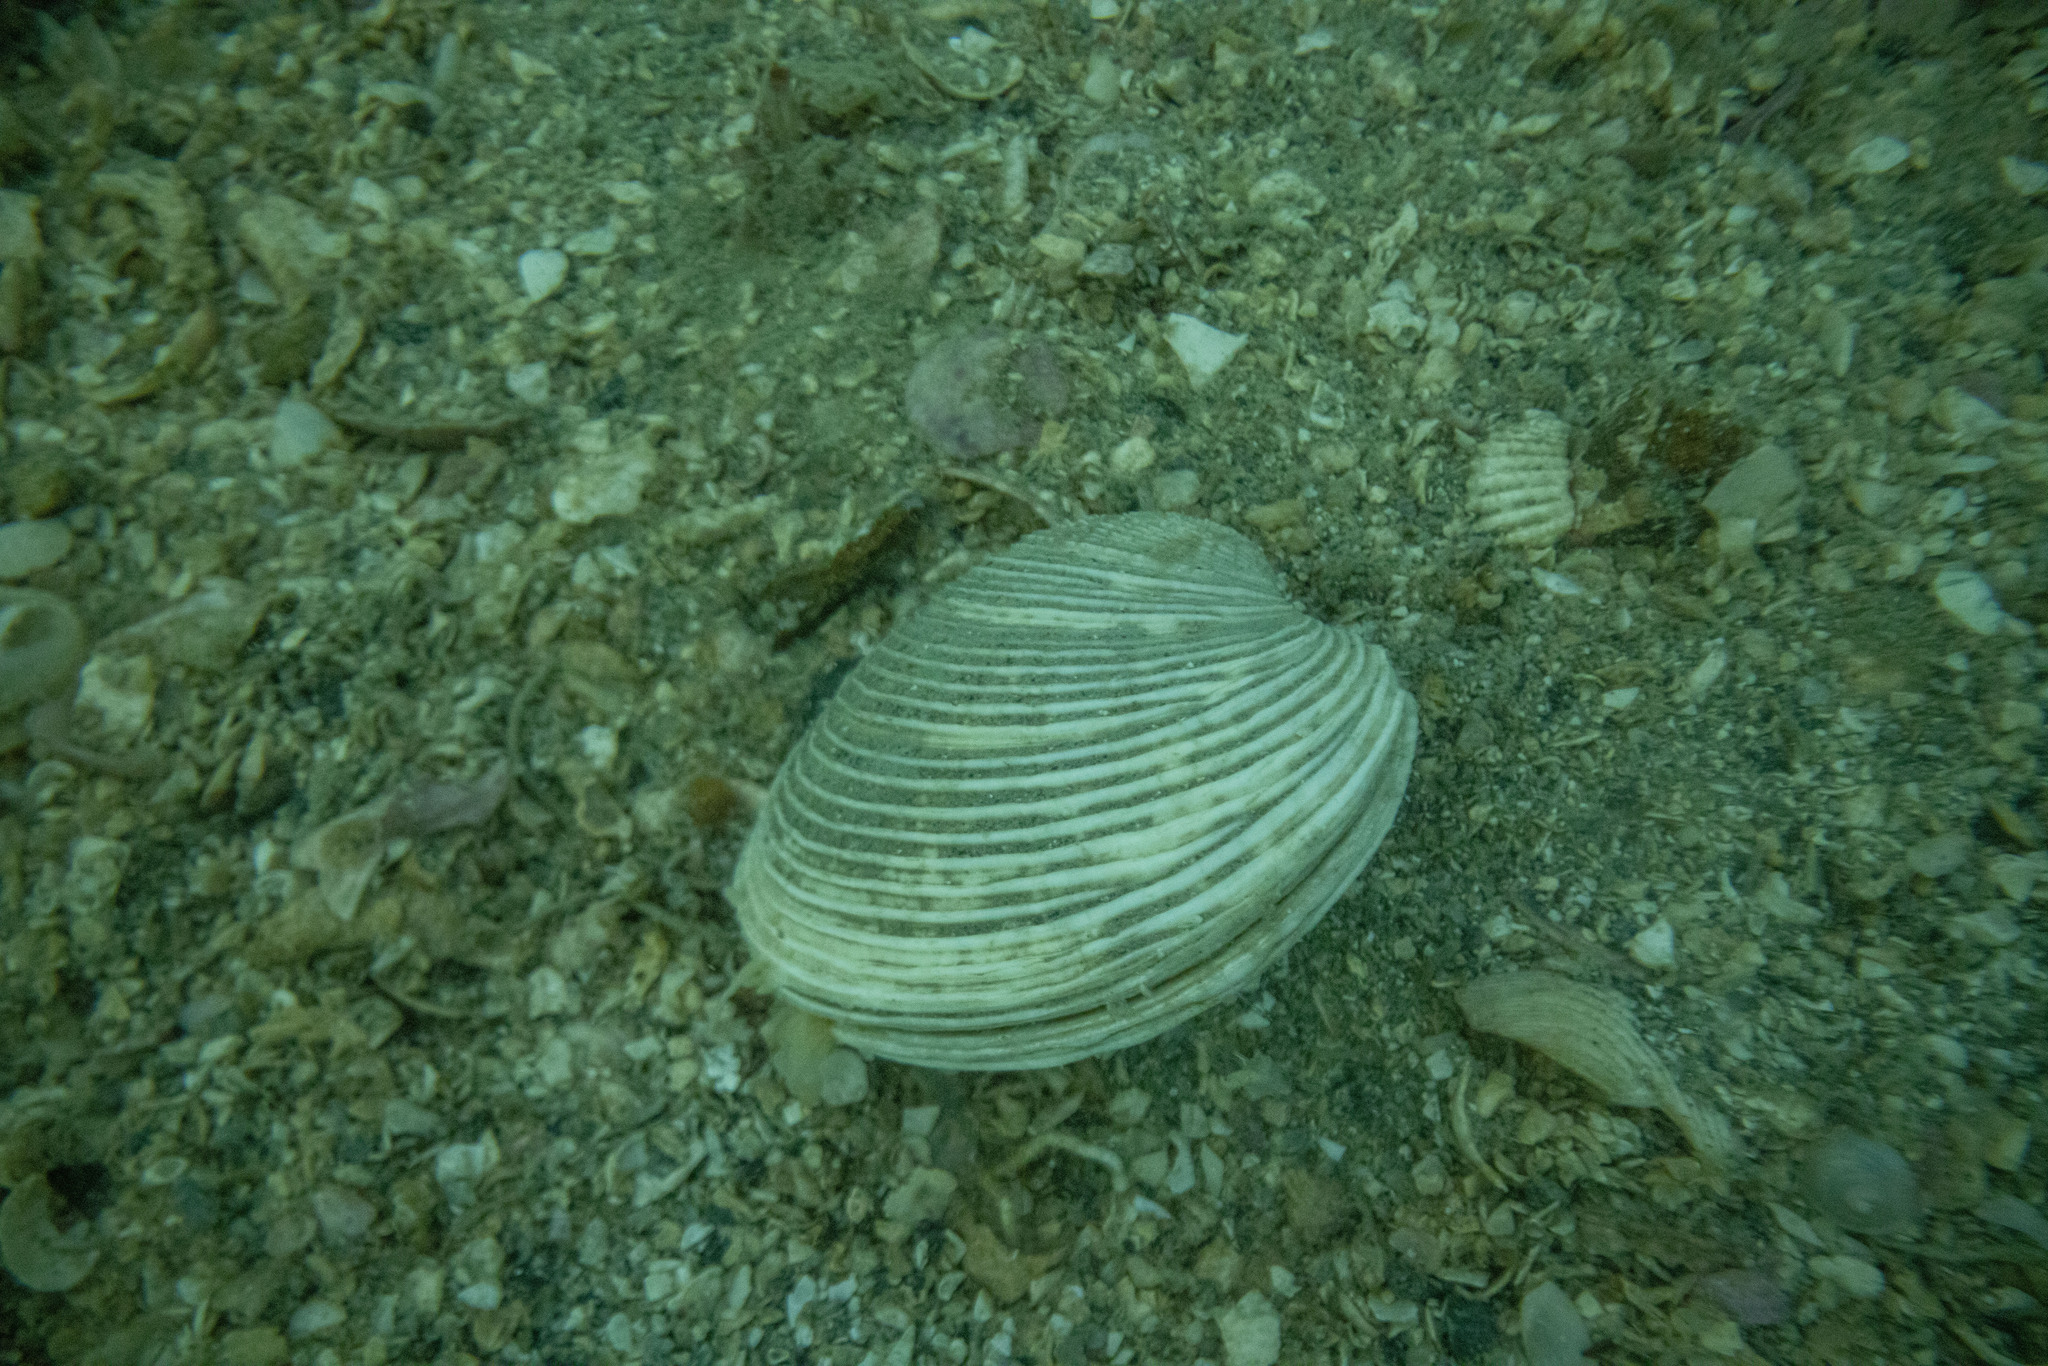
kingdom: Animalia
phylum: Mollusca
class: Bivalvia
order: Venerida
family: Veneridae
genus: Dosina
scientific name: Dosina mactracea
